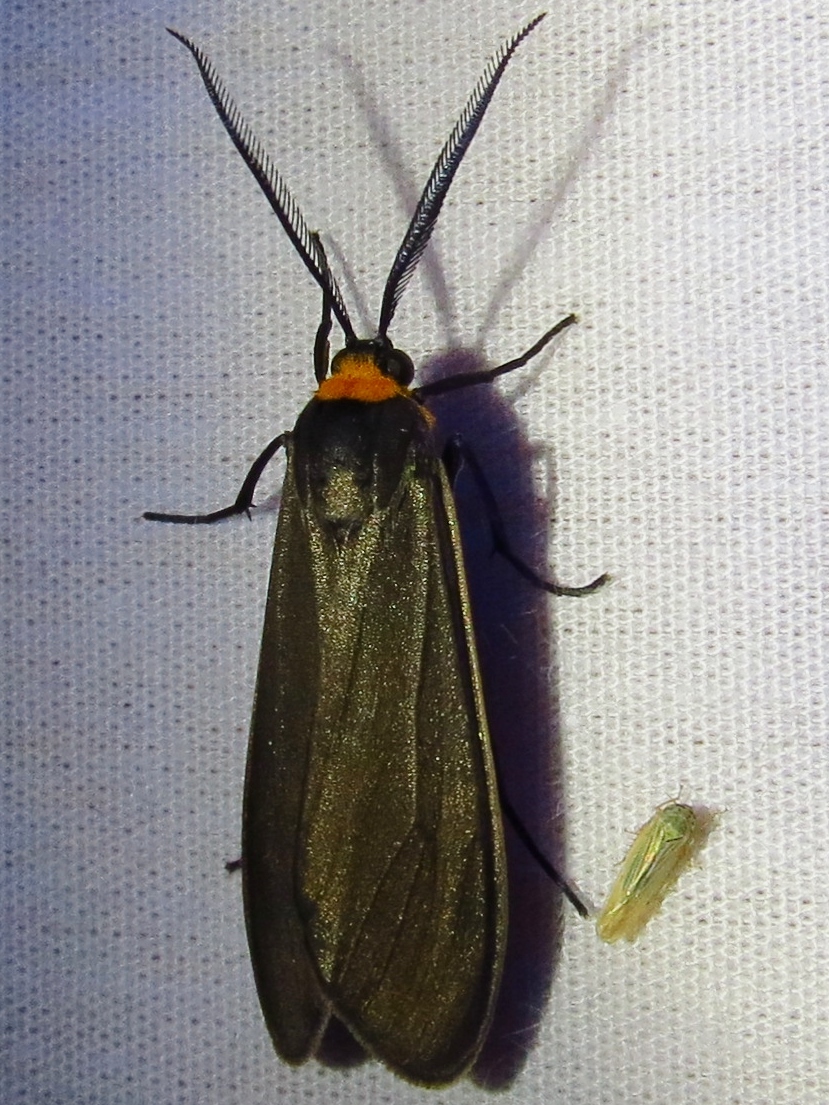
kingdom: Animalia
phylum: Arthropoda
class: Insecta
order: Lepidoptera
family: Erebidae
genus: Cisseps
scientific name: Cisseps fulvicollis
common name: Yellow-collared scape moth
